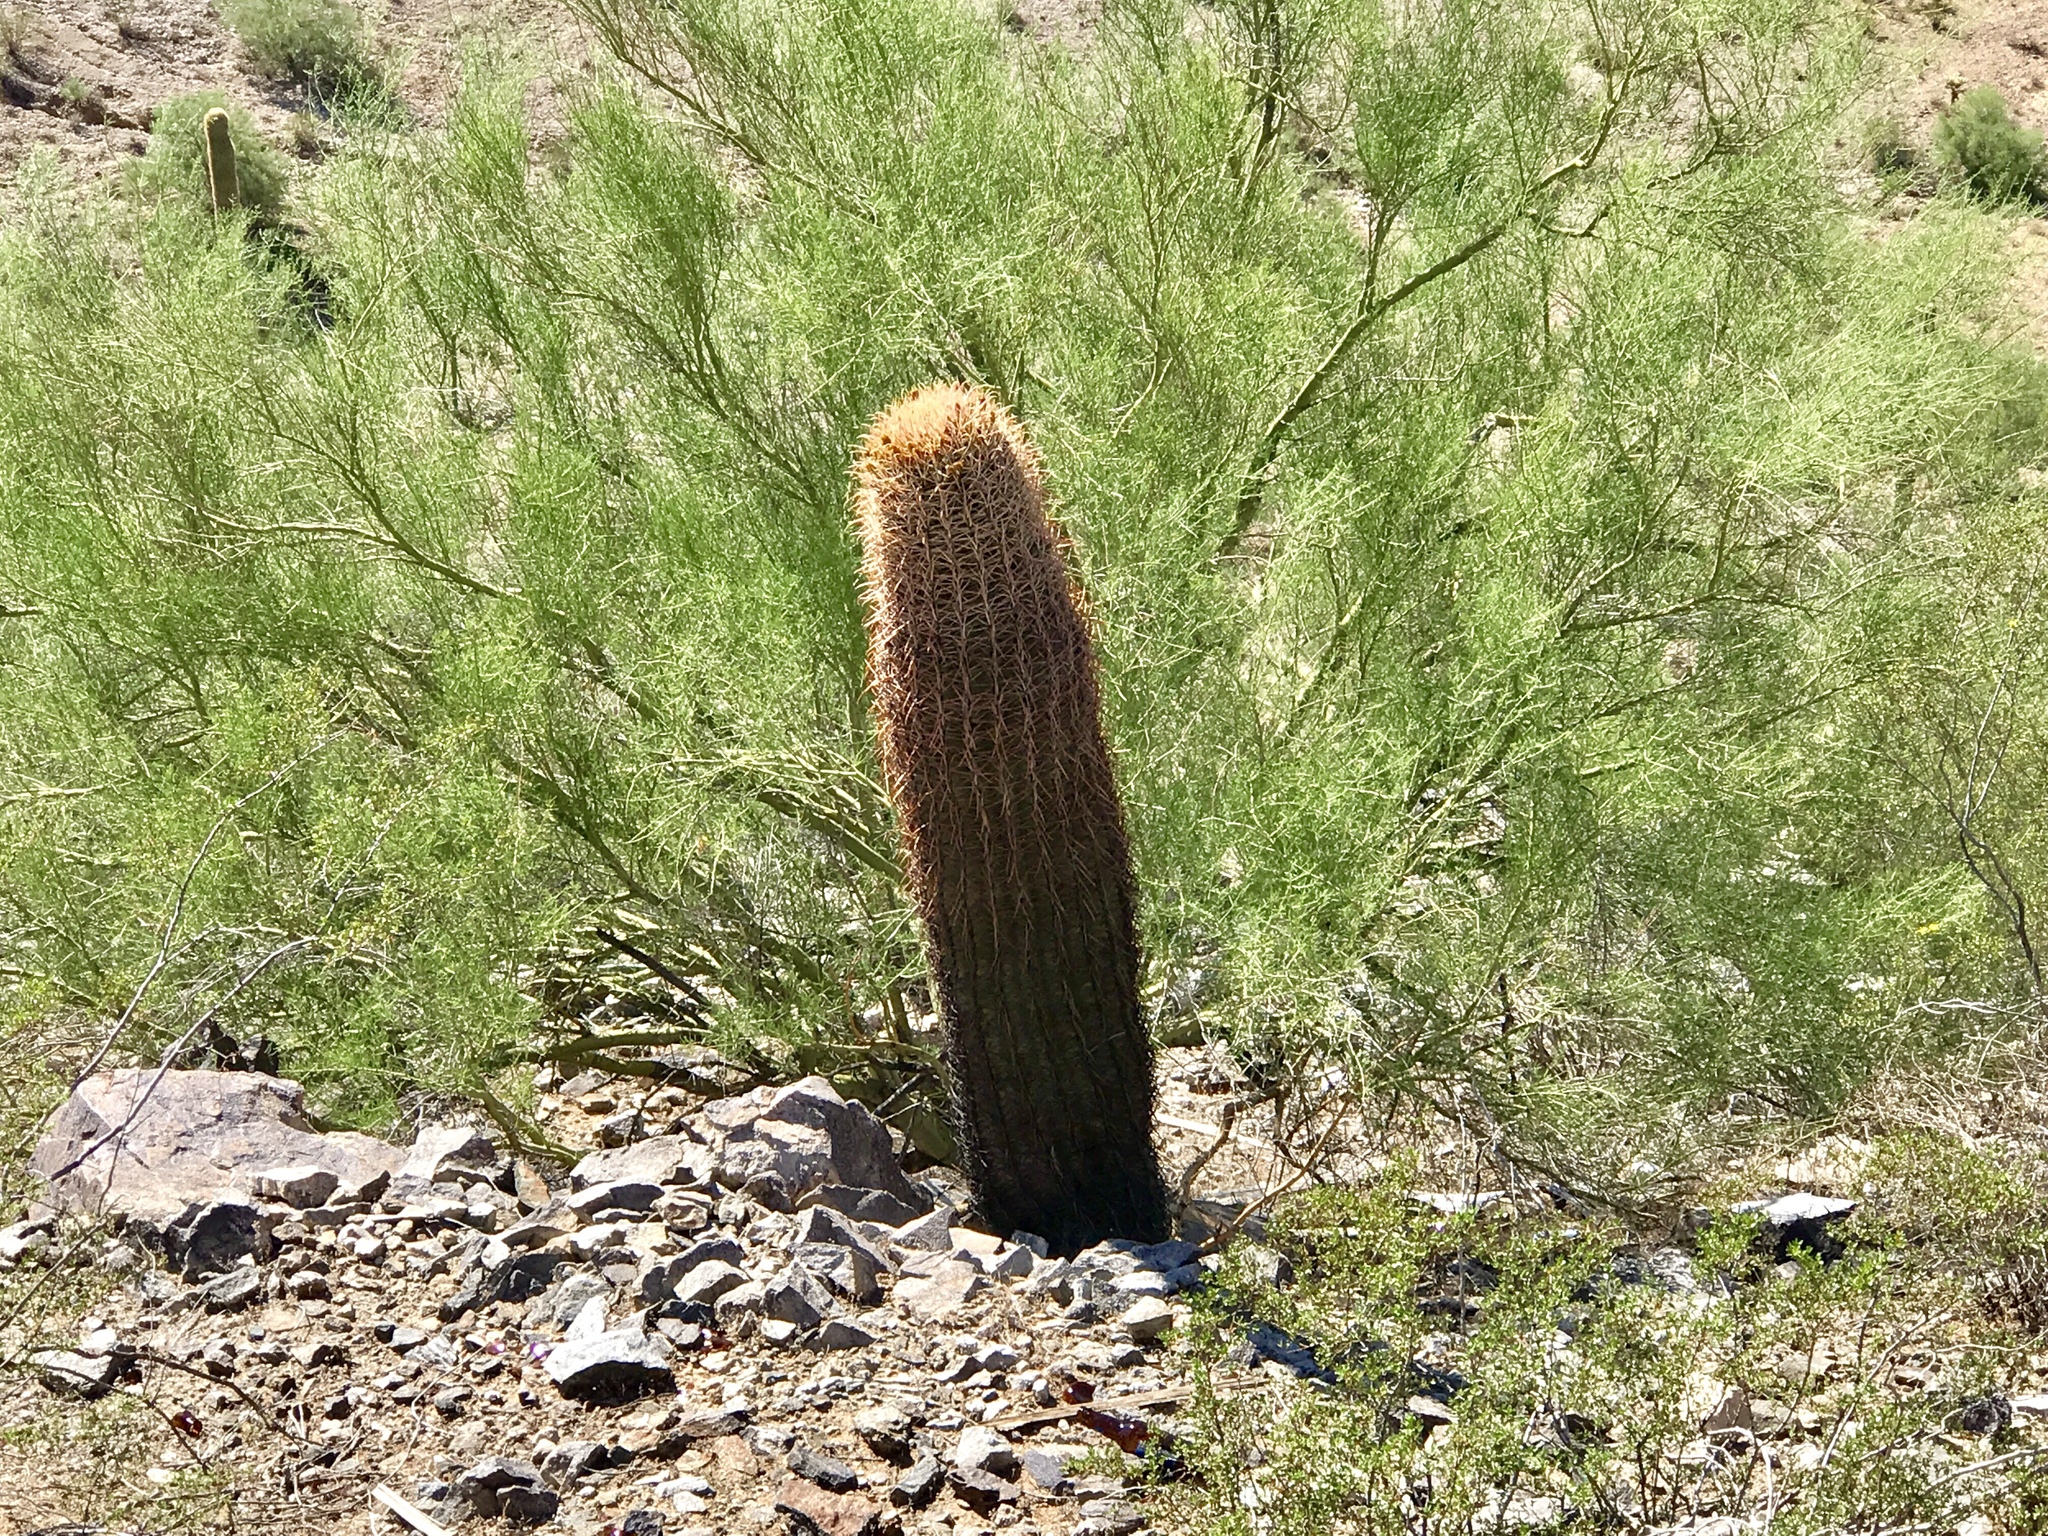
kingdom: Plantae
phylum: Tracheophyta
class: Magnoliopsida
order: Caryophyllales
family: Cactaceae
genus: Ferocactus
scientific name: Ferocactus cylindraceus
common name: California barrel cactus
